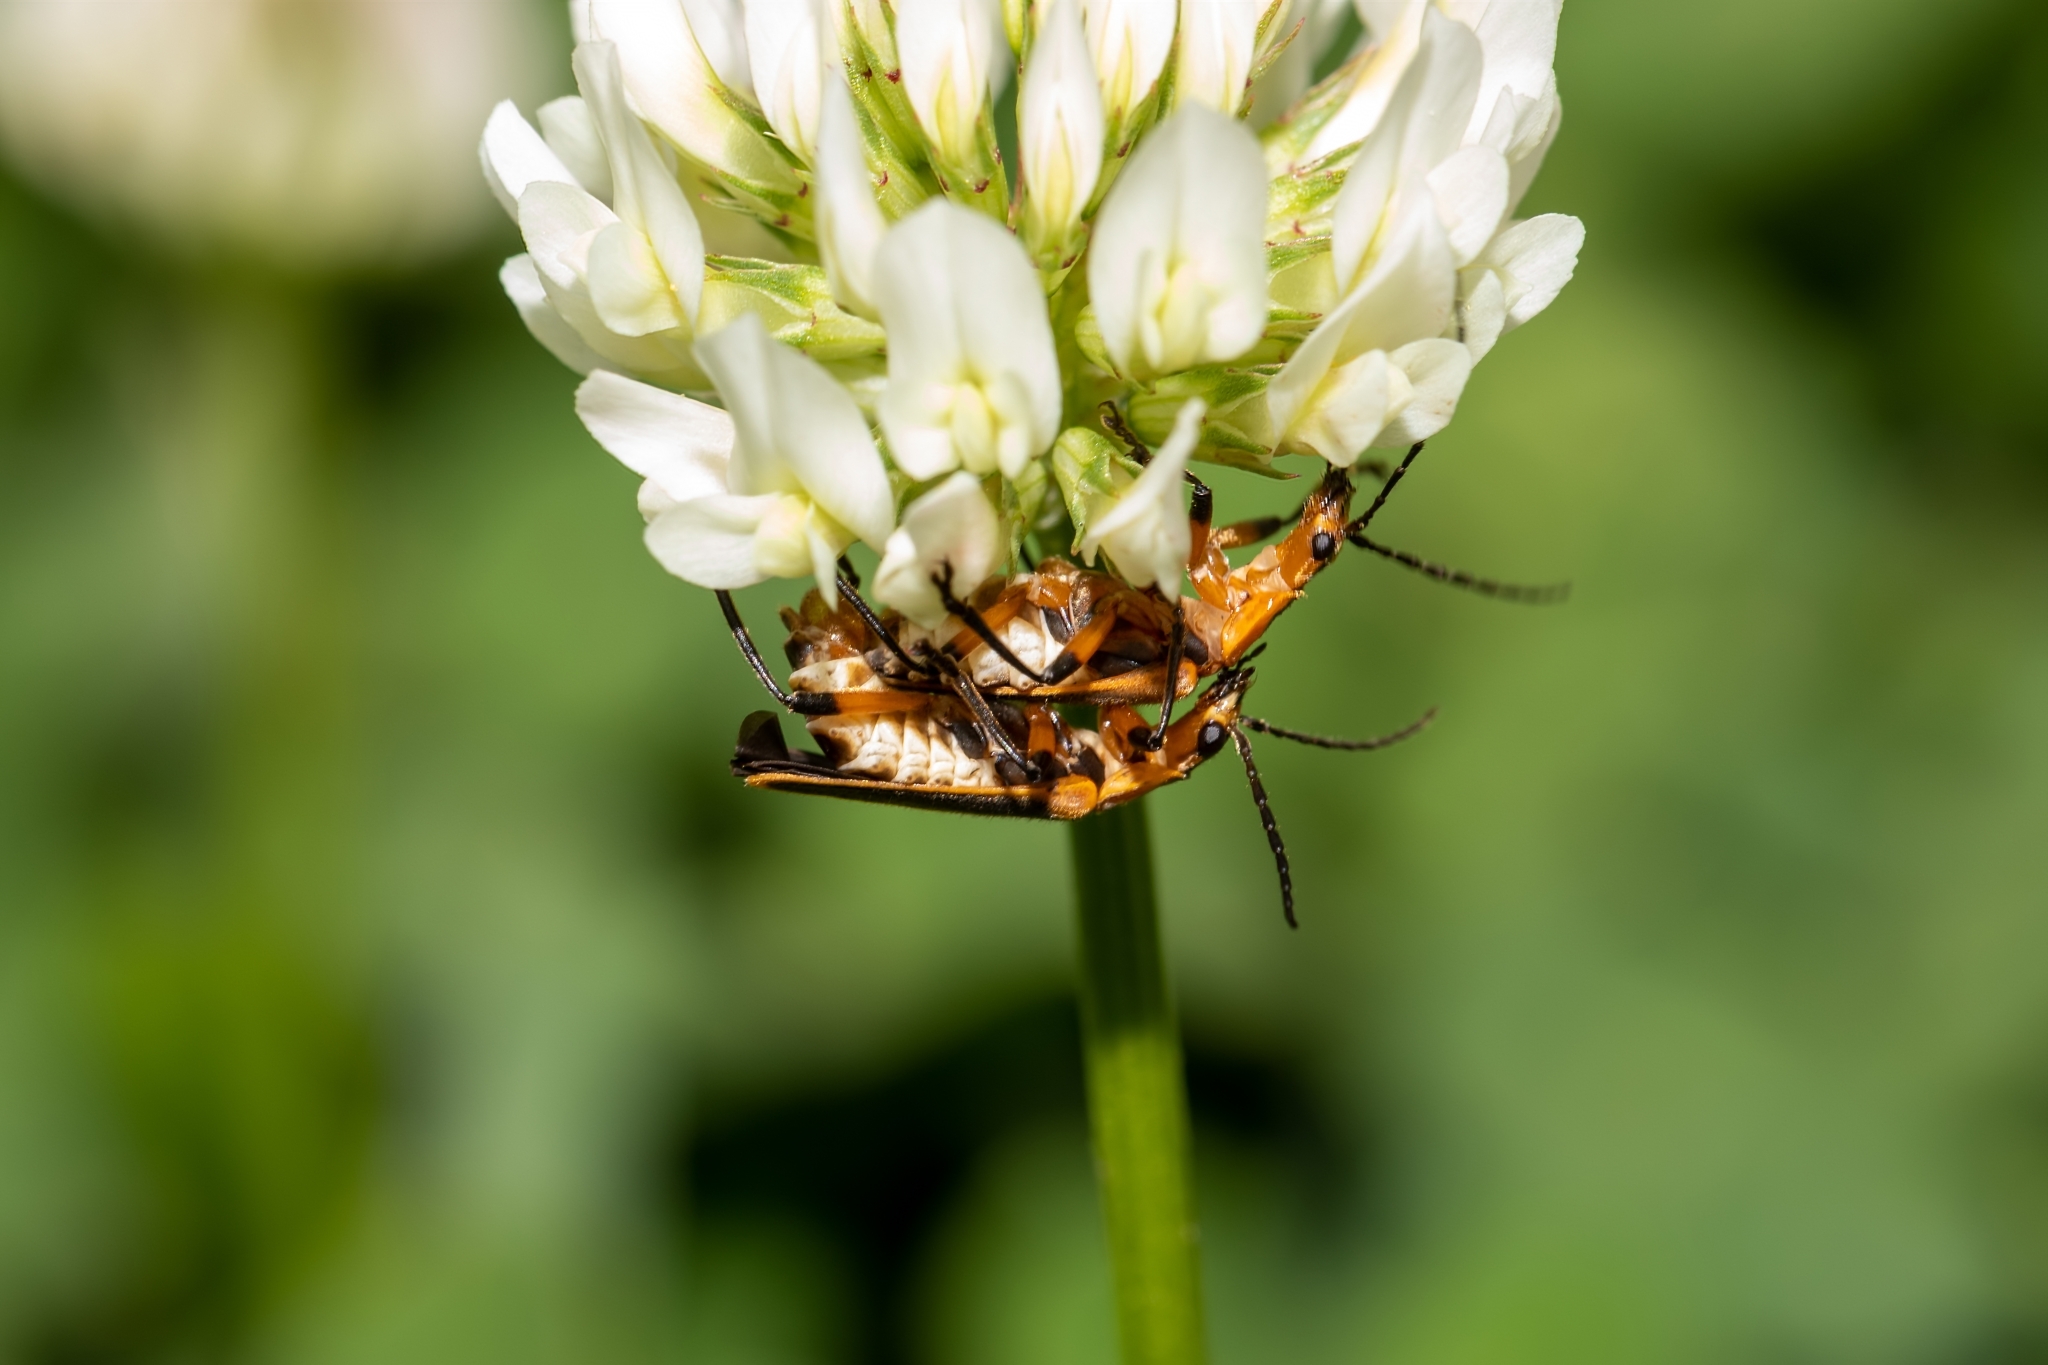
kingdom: Animalia
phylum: Arthropoda
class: Insecta
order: Coleoptera
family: Cantharidae
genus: Chauliognathus
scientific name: Chauliognathus marginatus
